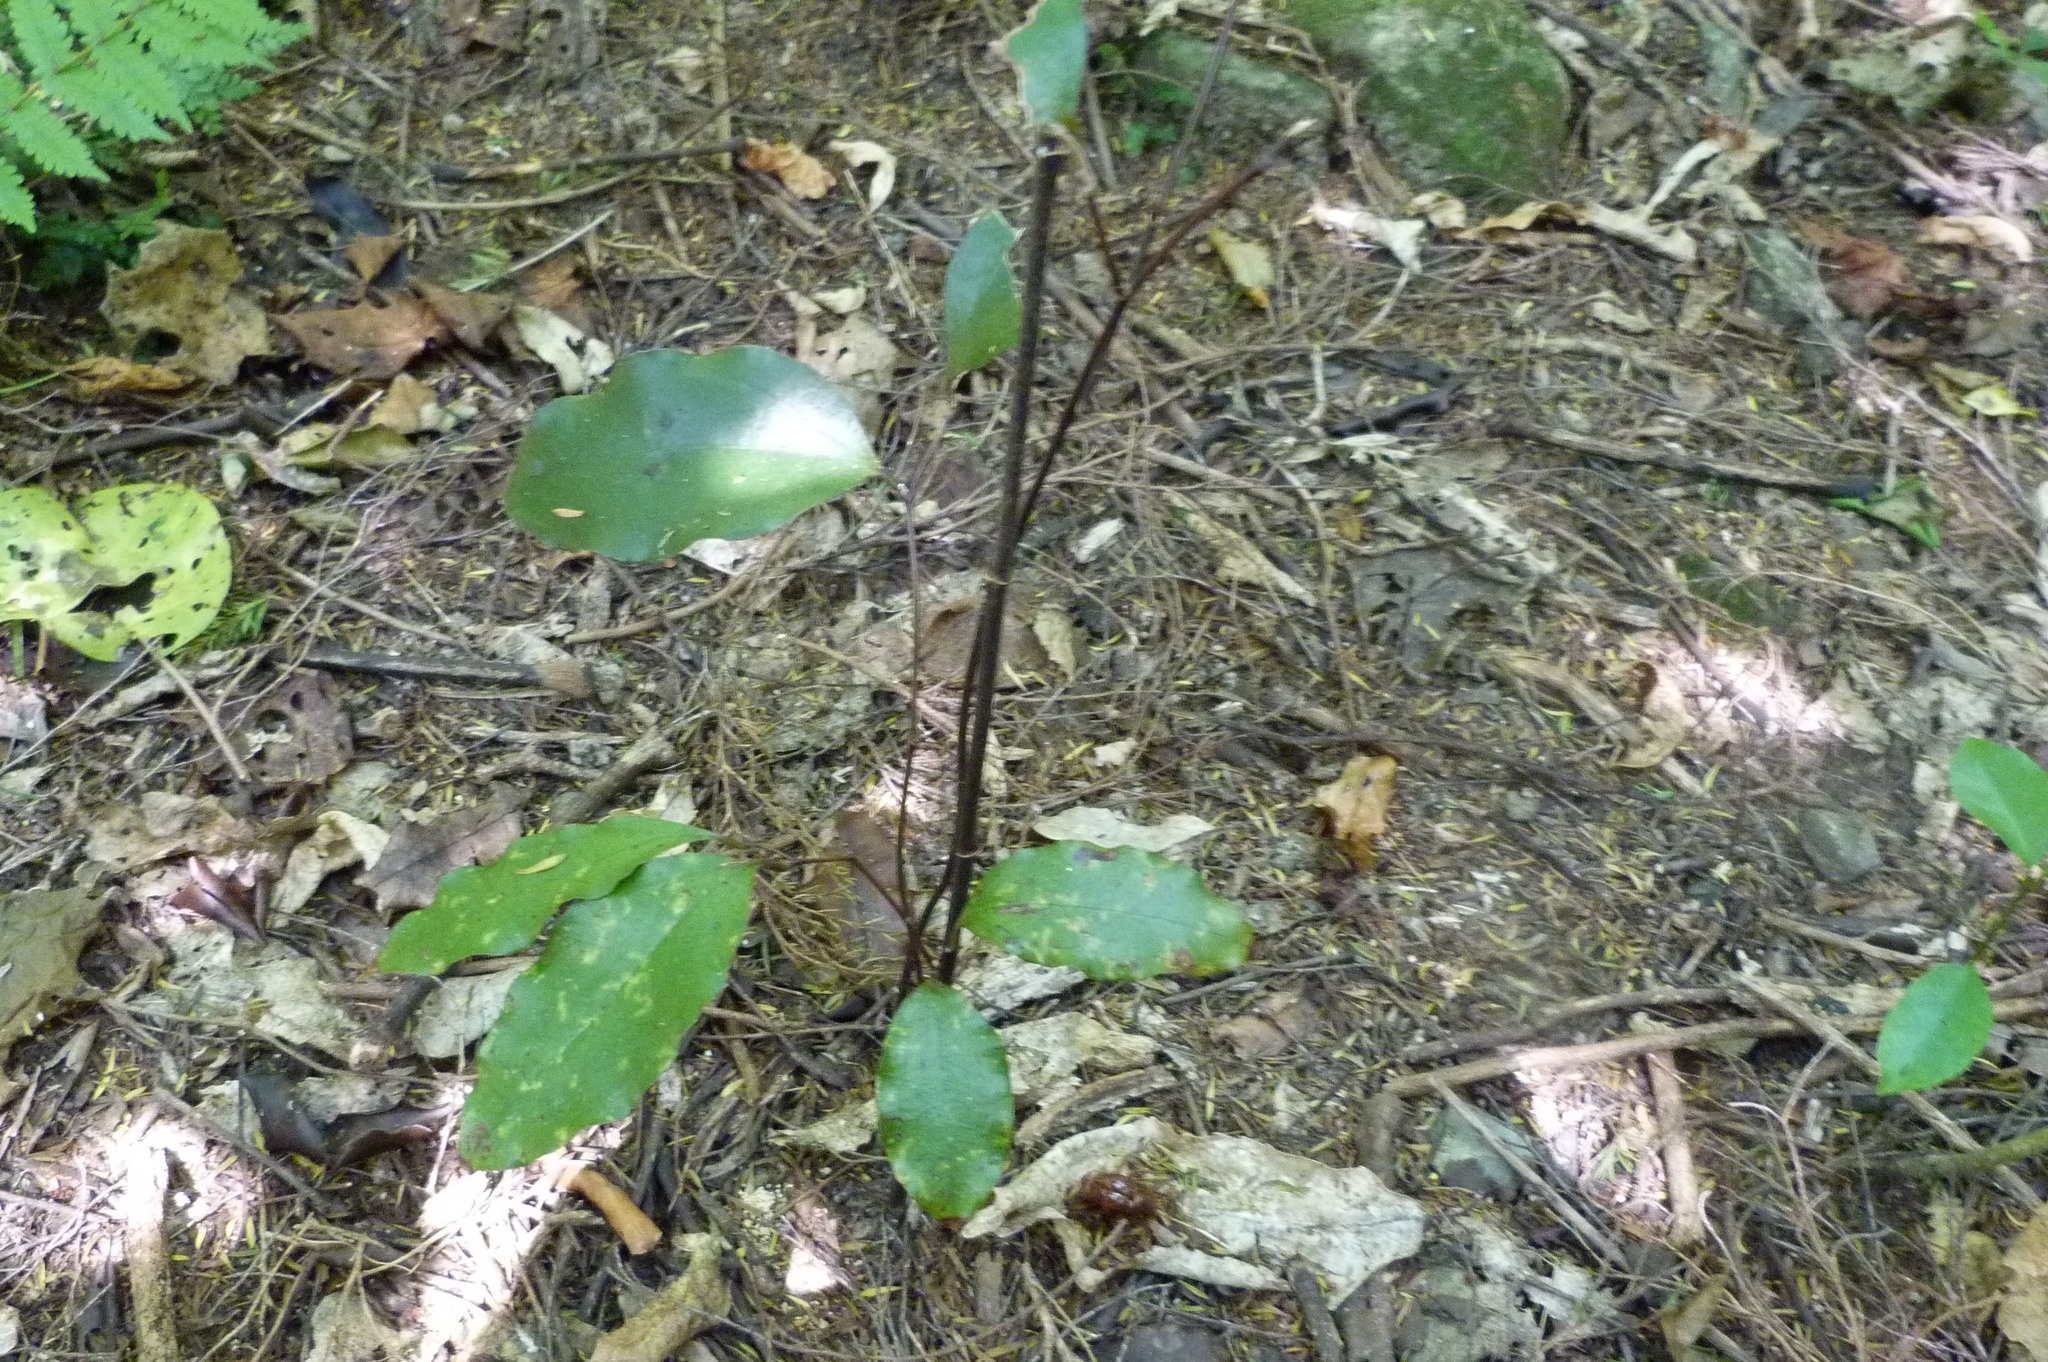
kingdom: Plantae
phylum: Tracheophyta
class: Liliopsida
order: Liliales
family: Ripogonaceae
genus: Ripogonum
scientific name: Ripogonum scandens
